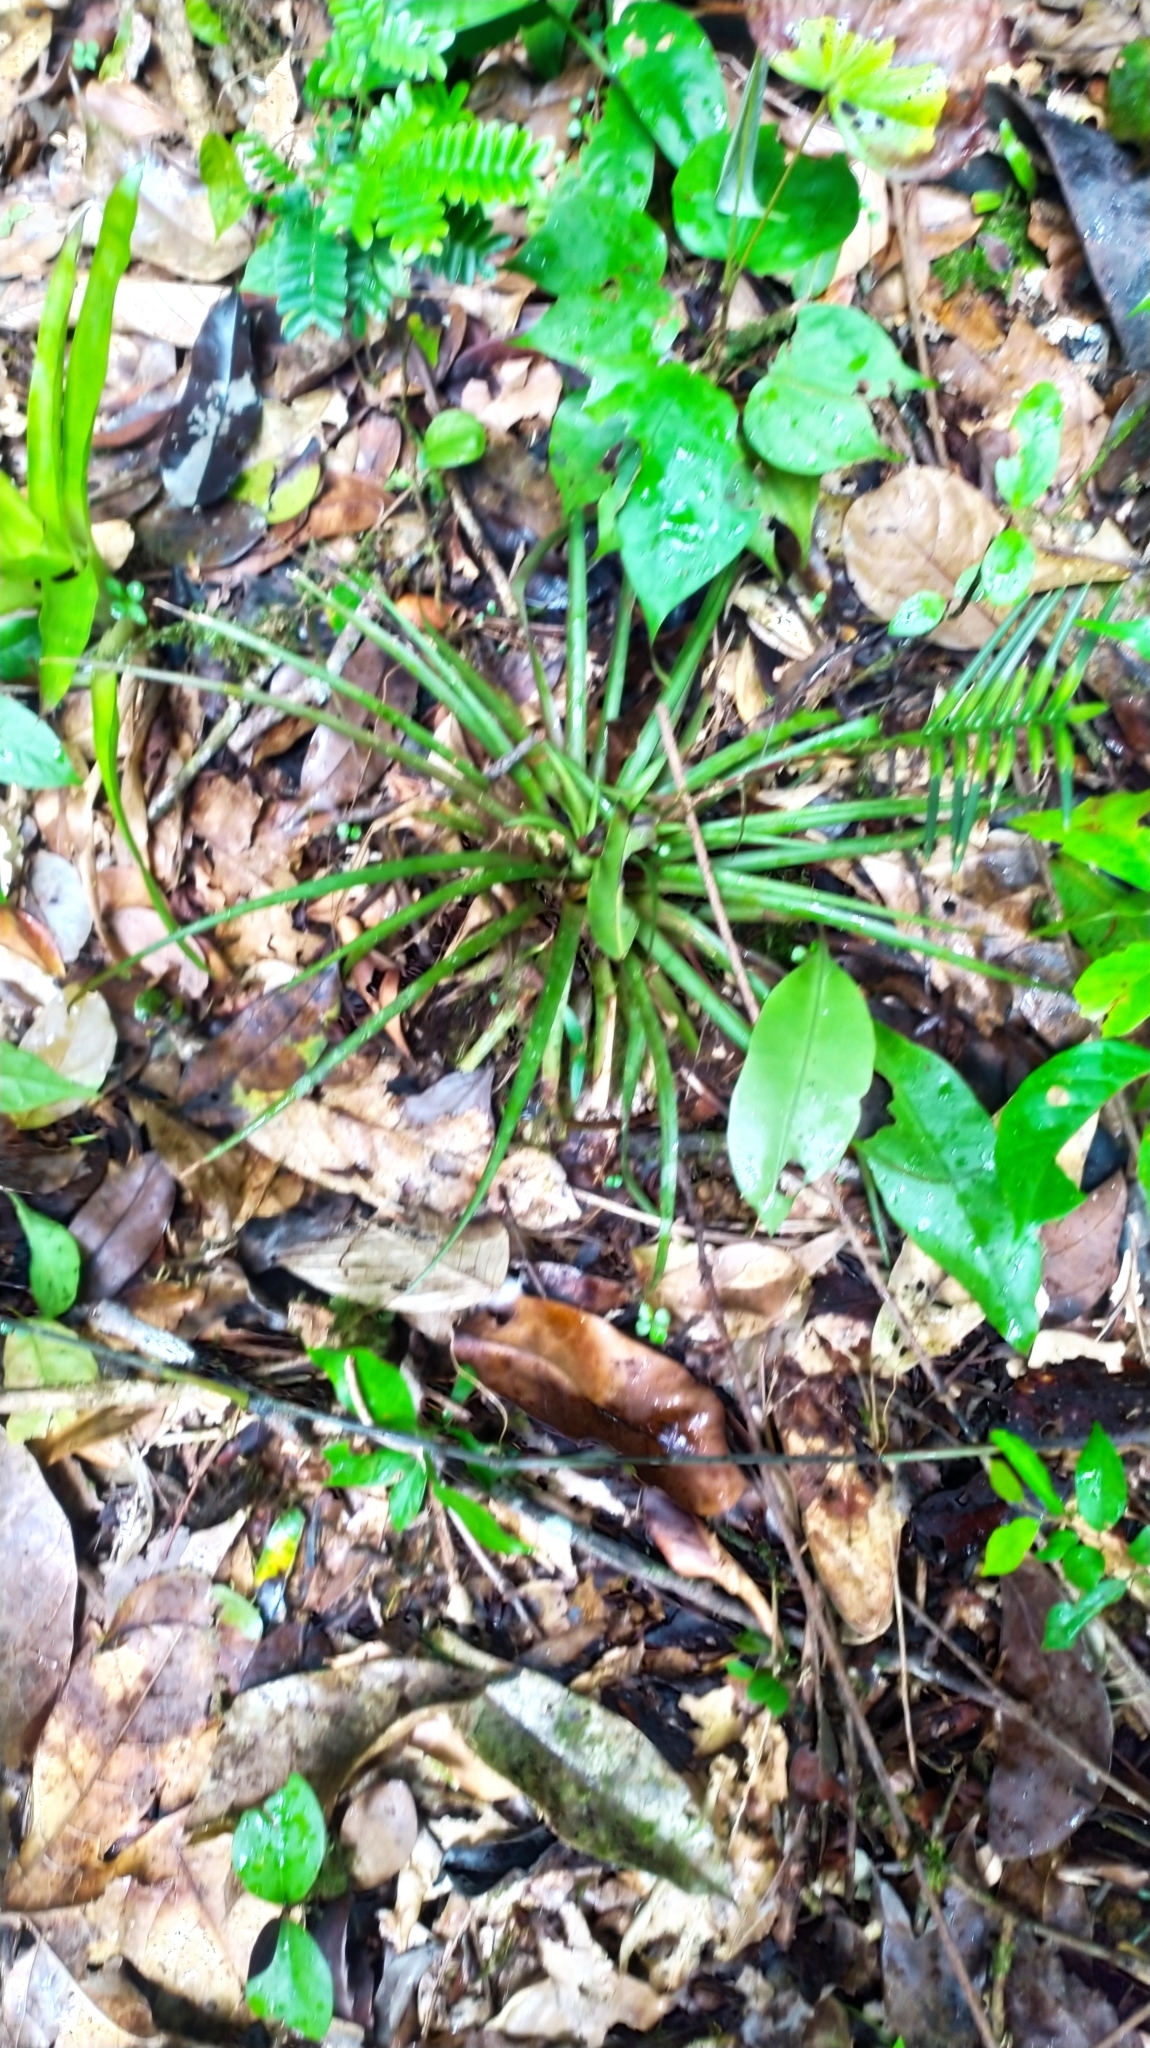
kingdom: Plantae
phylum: Tracheophyta
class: Liliopsida
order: Poales
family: Bromeliaceae
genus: Lemeltonia
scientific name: Lemeltonia monadelpha
